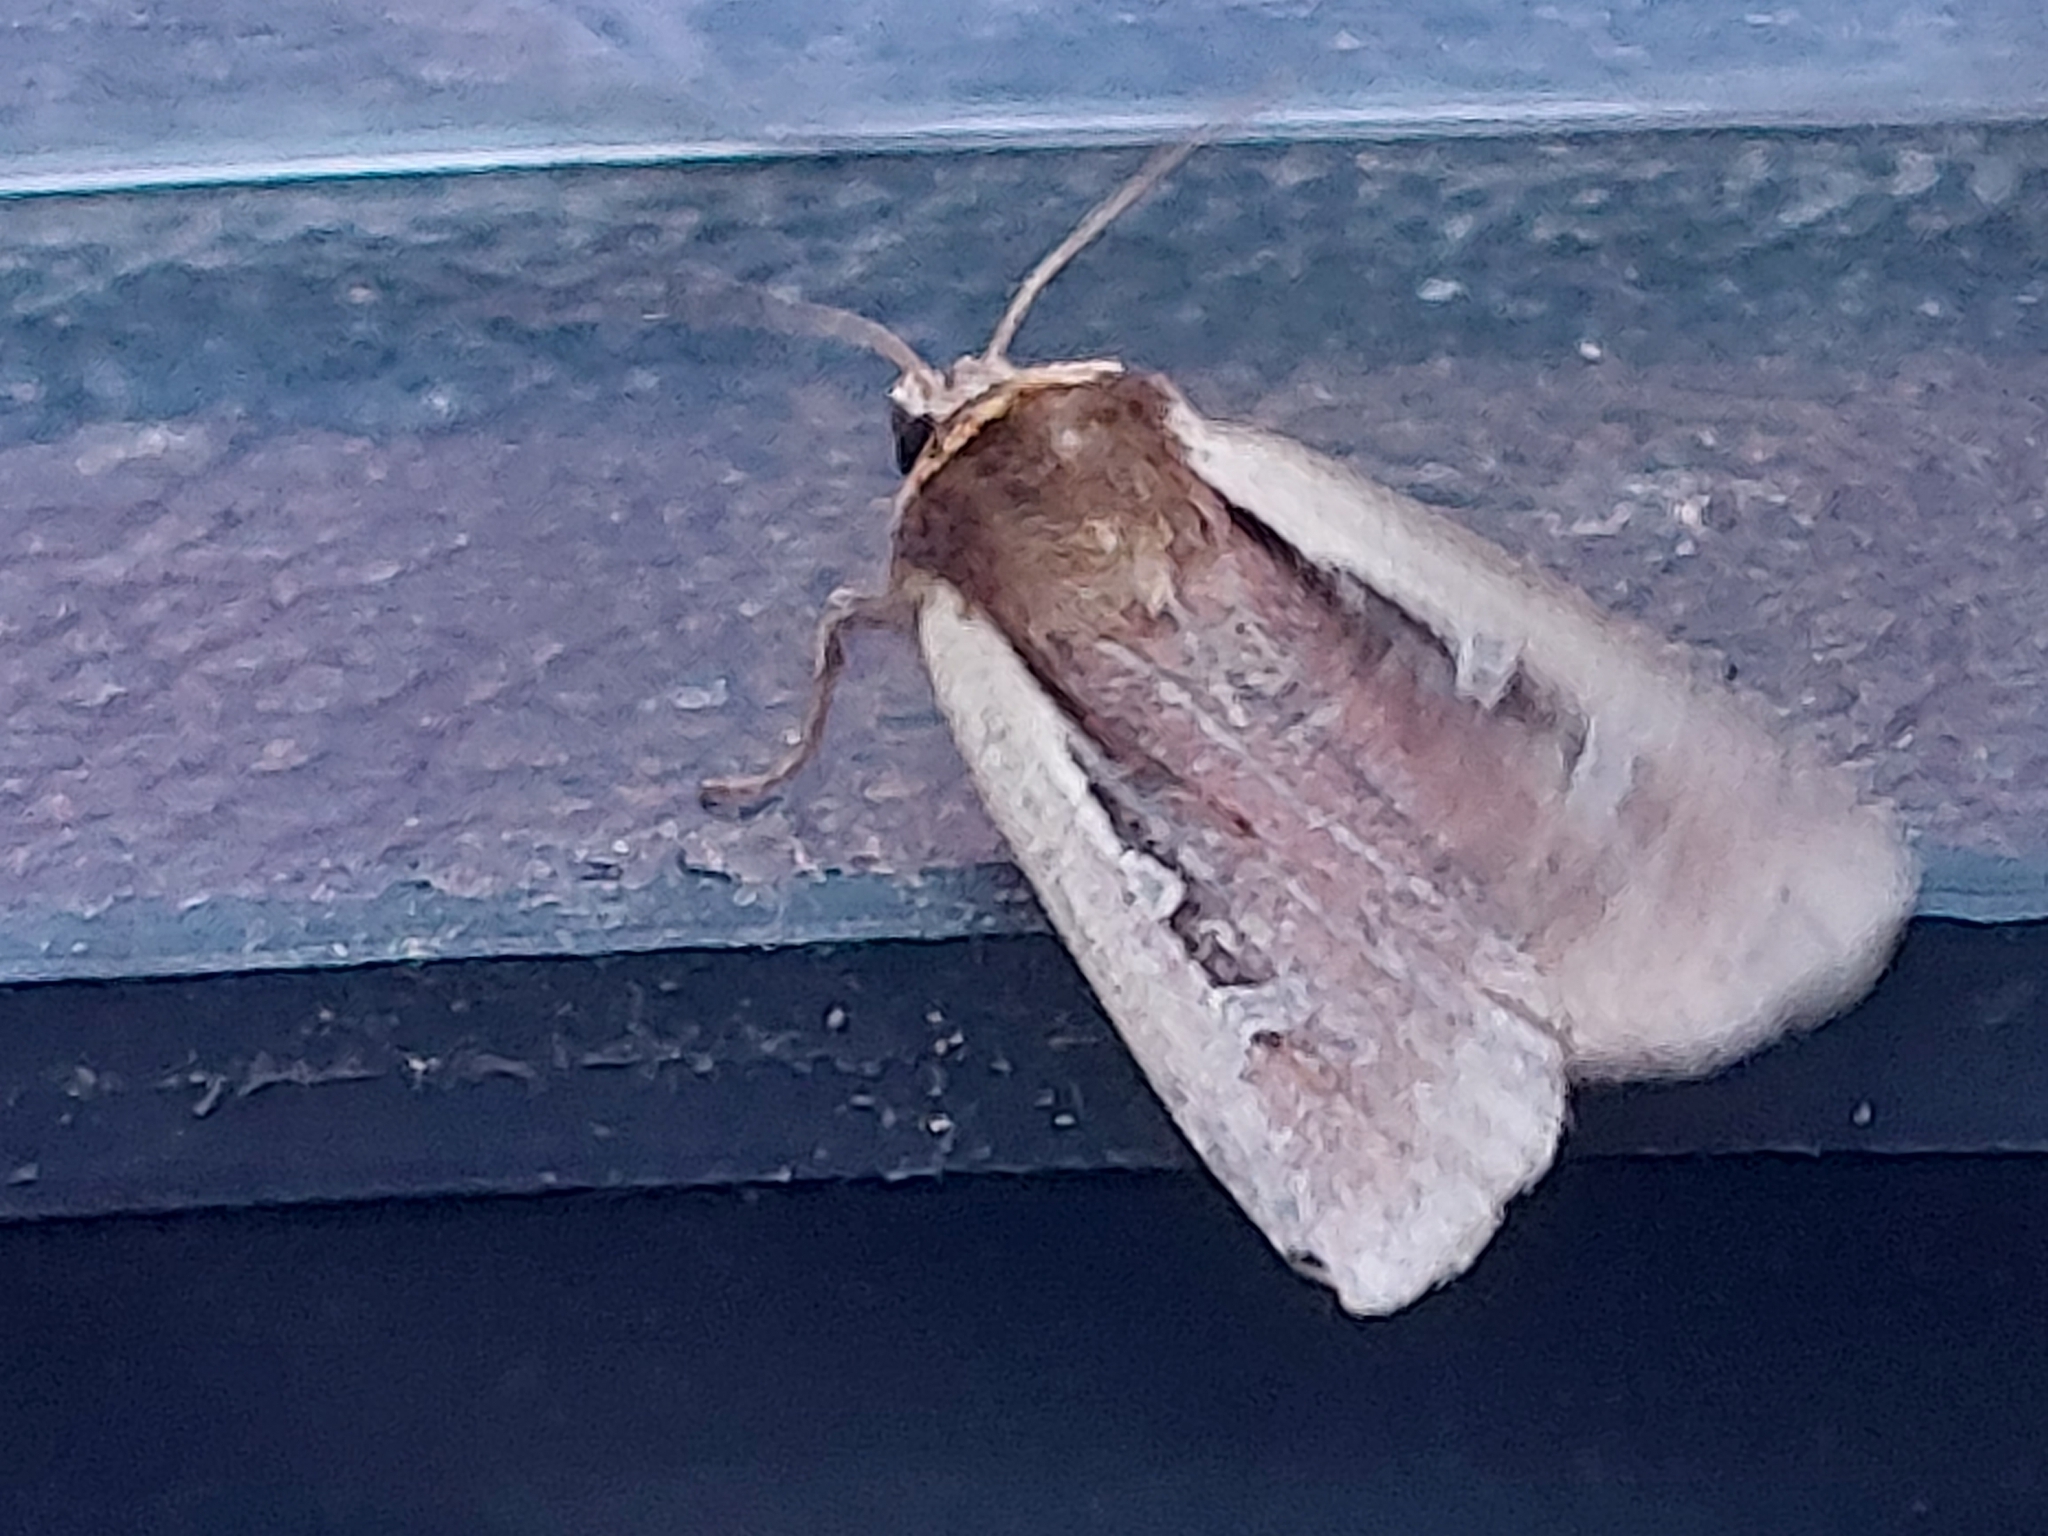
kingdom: Animalia
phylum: Arthropoda
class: Insecta
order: Lepidoptera
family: Noctuidae
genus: Ochropleura
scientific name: Ochropleura plecta
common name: Flame shoulder
